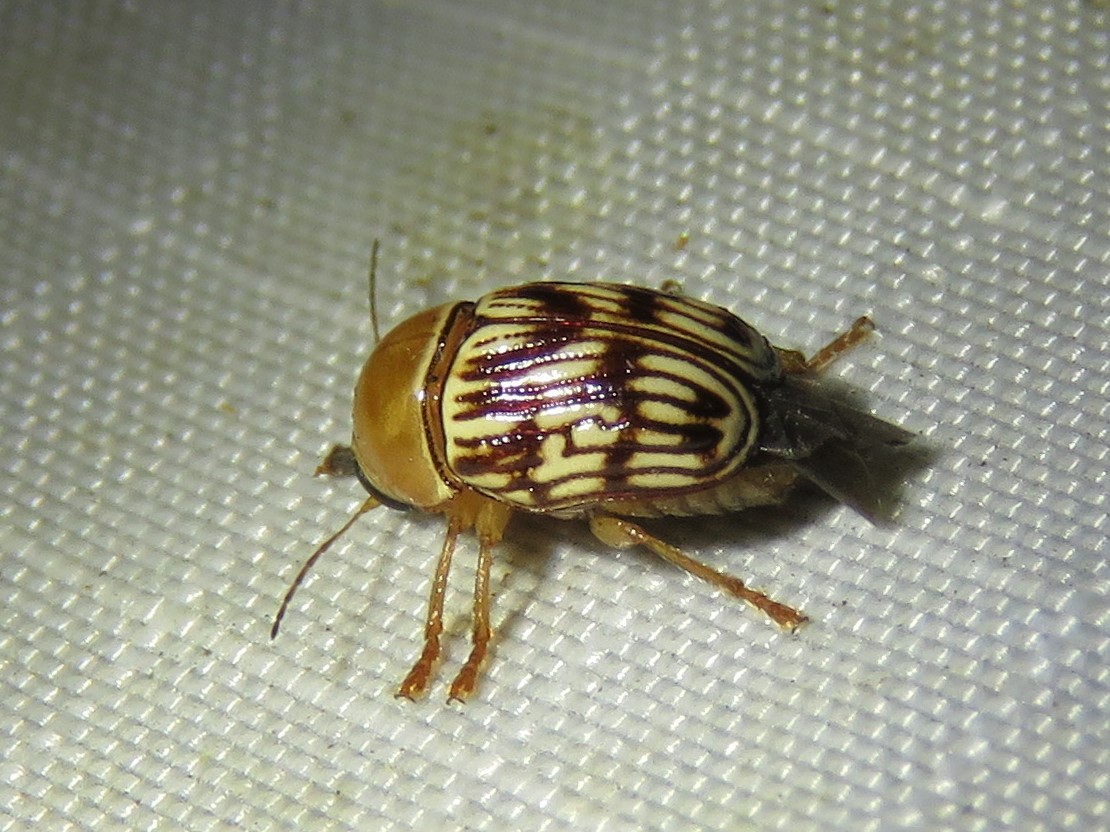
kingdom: Animalia
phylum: Arthropoda
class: Insecta
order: Coleoptera
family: Chrysomelidae
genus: Cryptocephalus
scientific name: Cryptocephalus fulguratus
